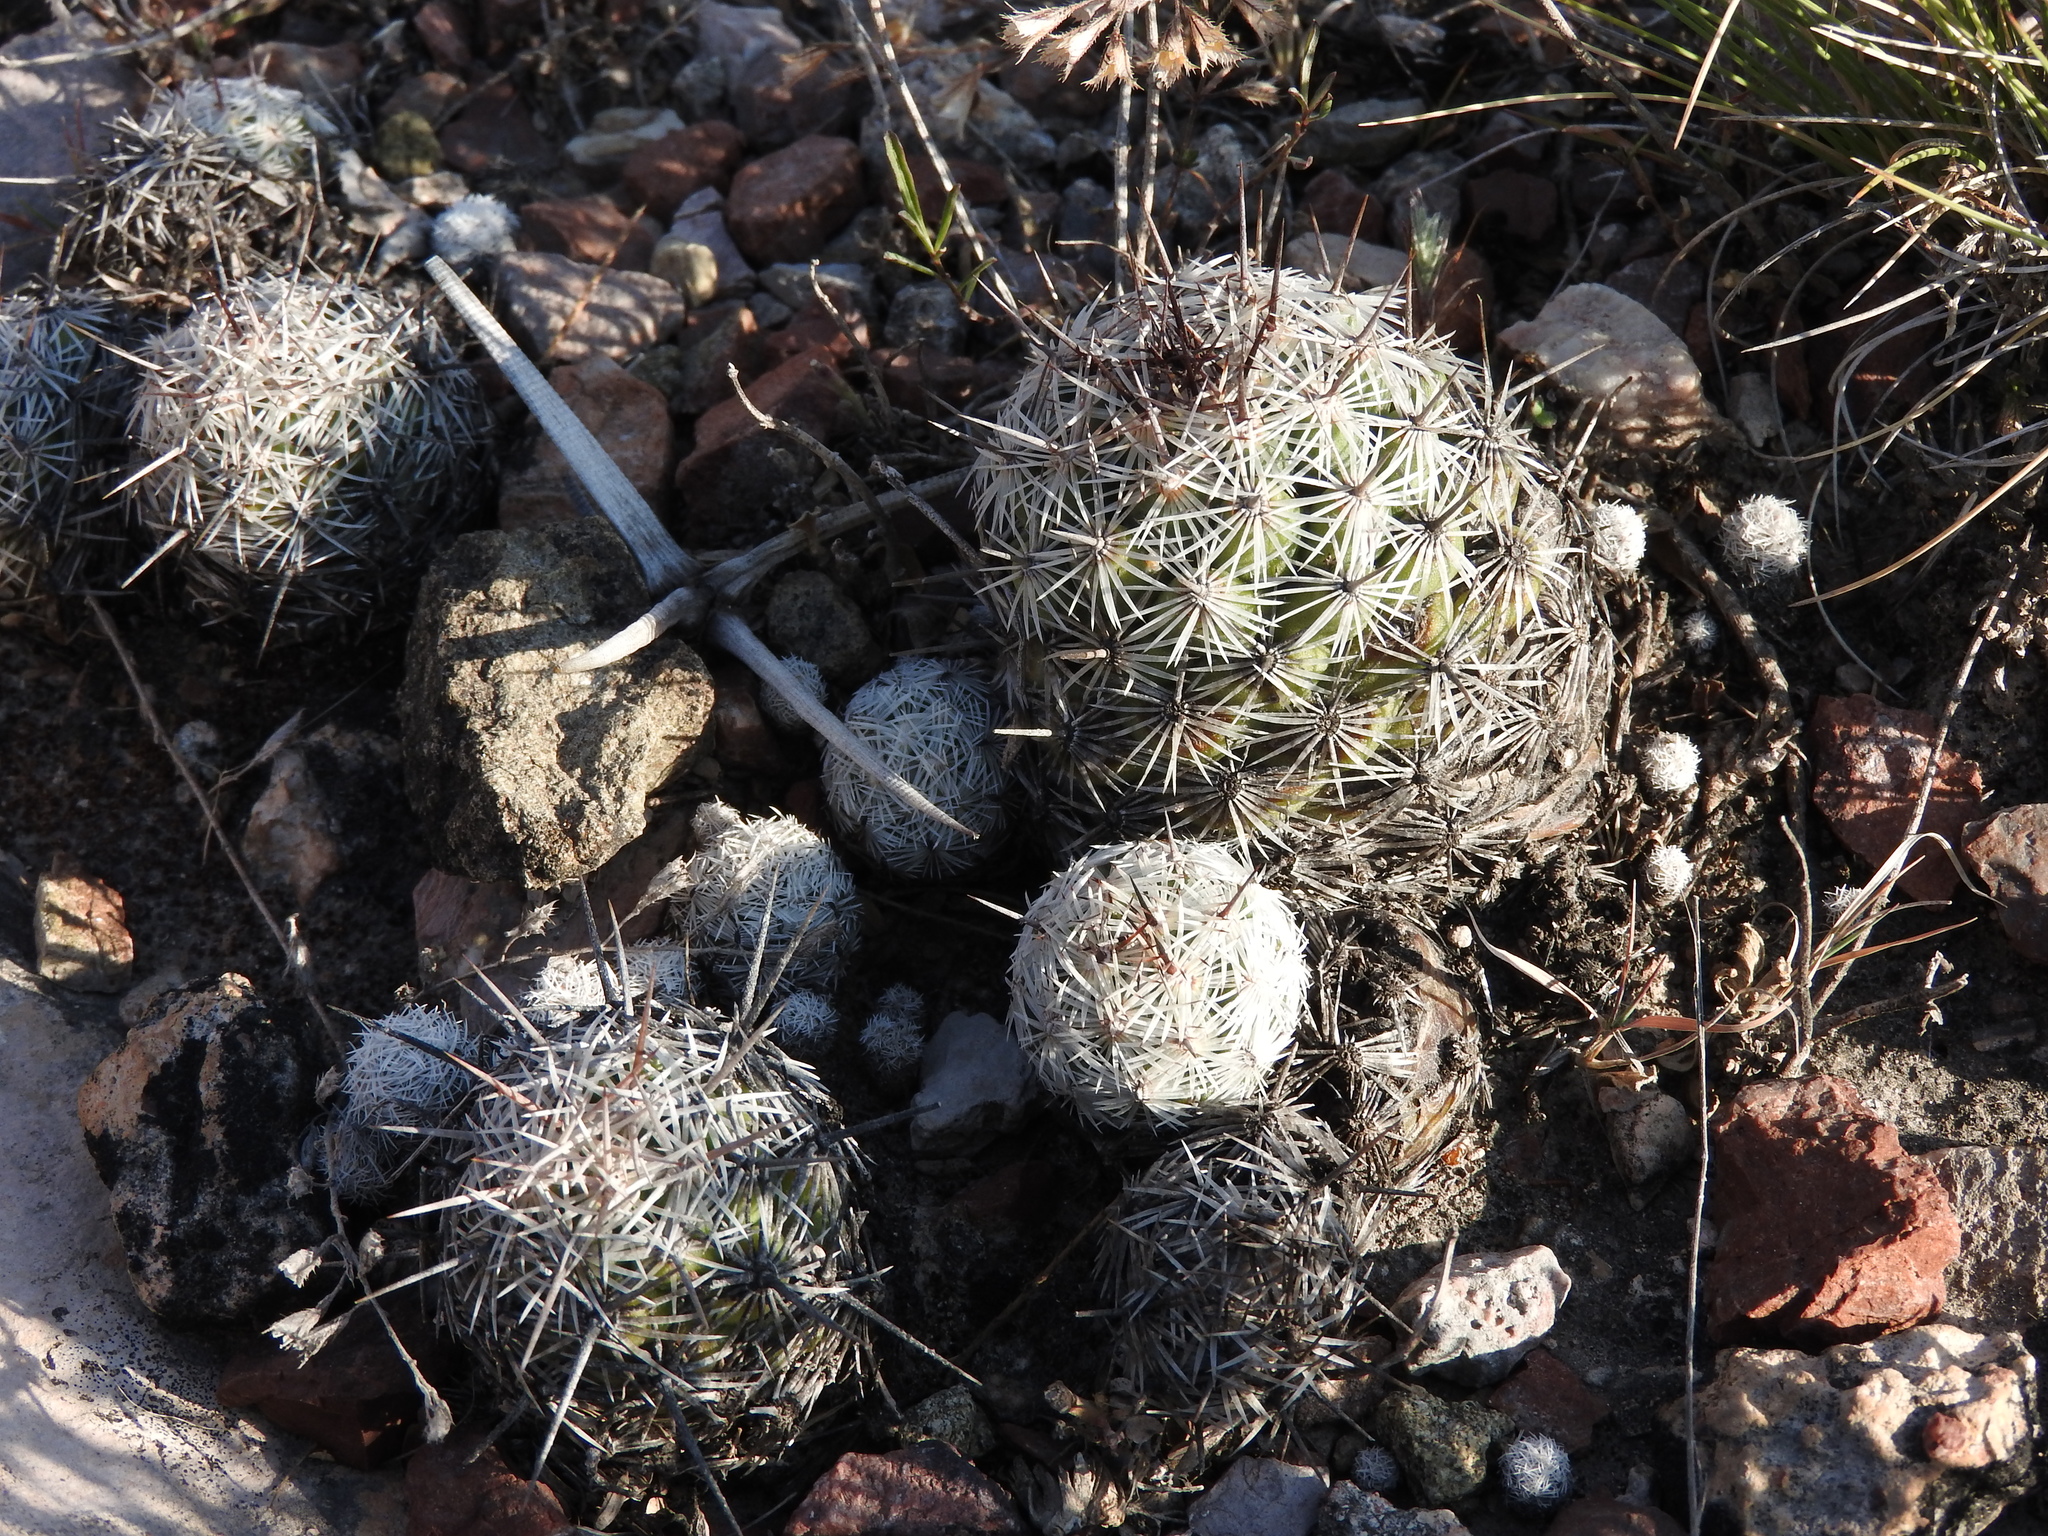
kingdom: Plantae
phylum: Tracheophyta
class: Magnoliopsida
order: Caryophyllales
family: Cactaceae
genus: Cochemiea
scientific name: Cochemiea conoidea
